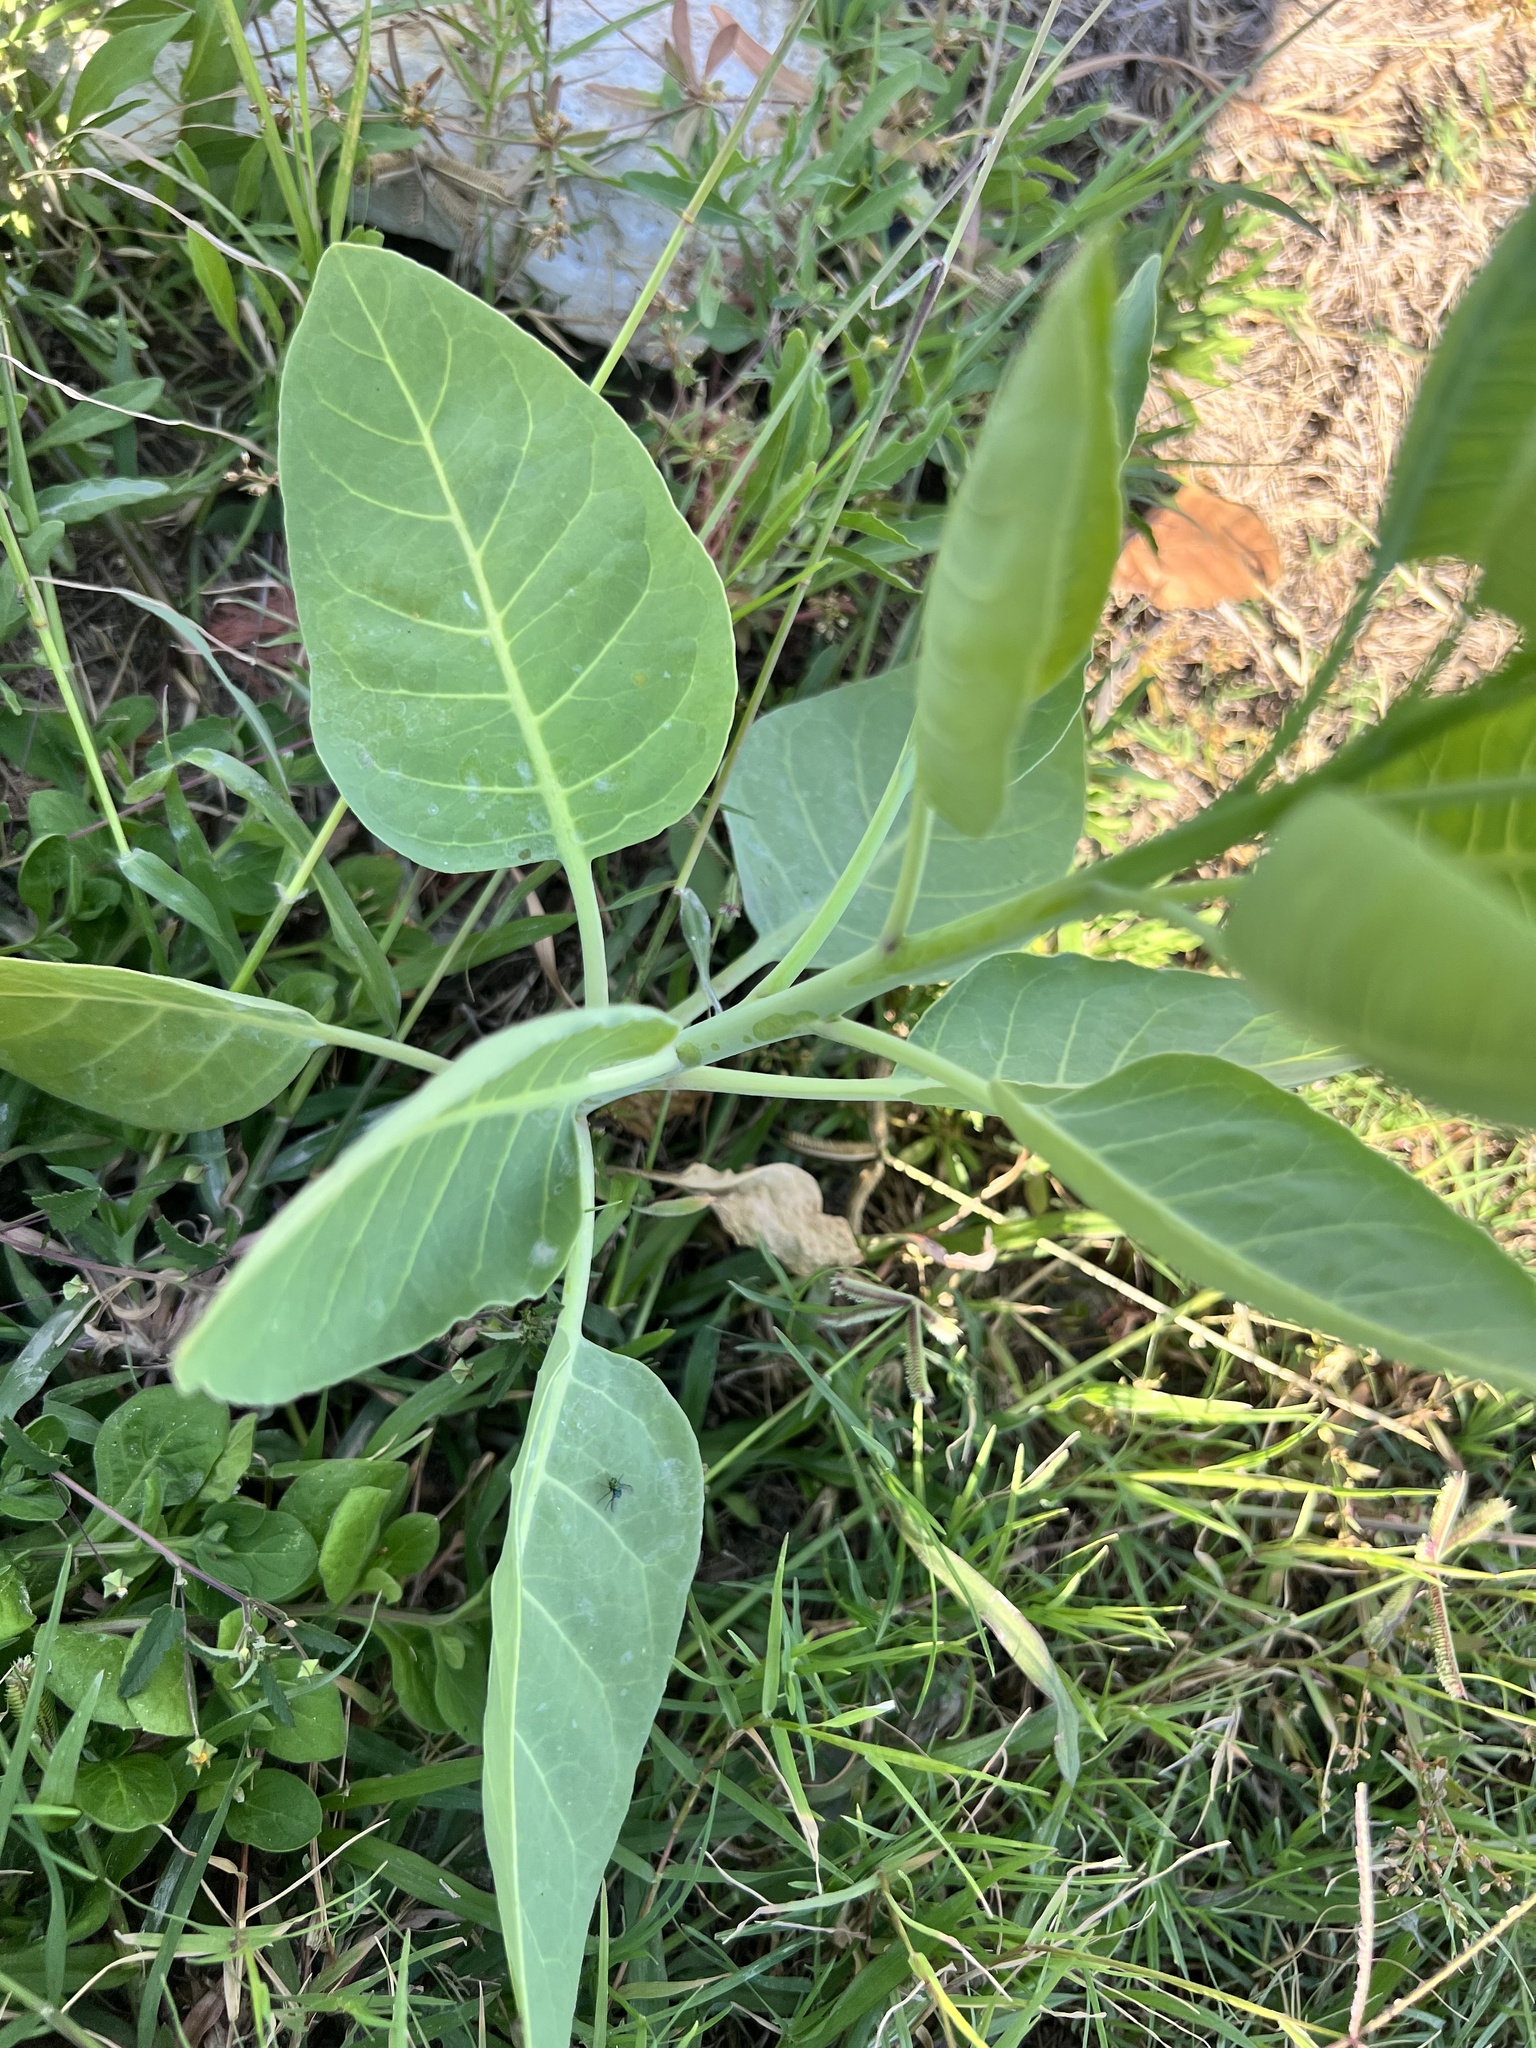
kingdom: Plantae
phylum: Tracheophyta
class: Magnoliopsida
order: Solanales
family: Solanaceae
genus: Nicotiana
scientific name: Nicotiana glauca
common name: Tree tobacco
